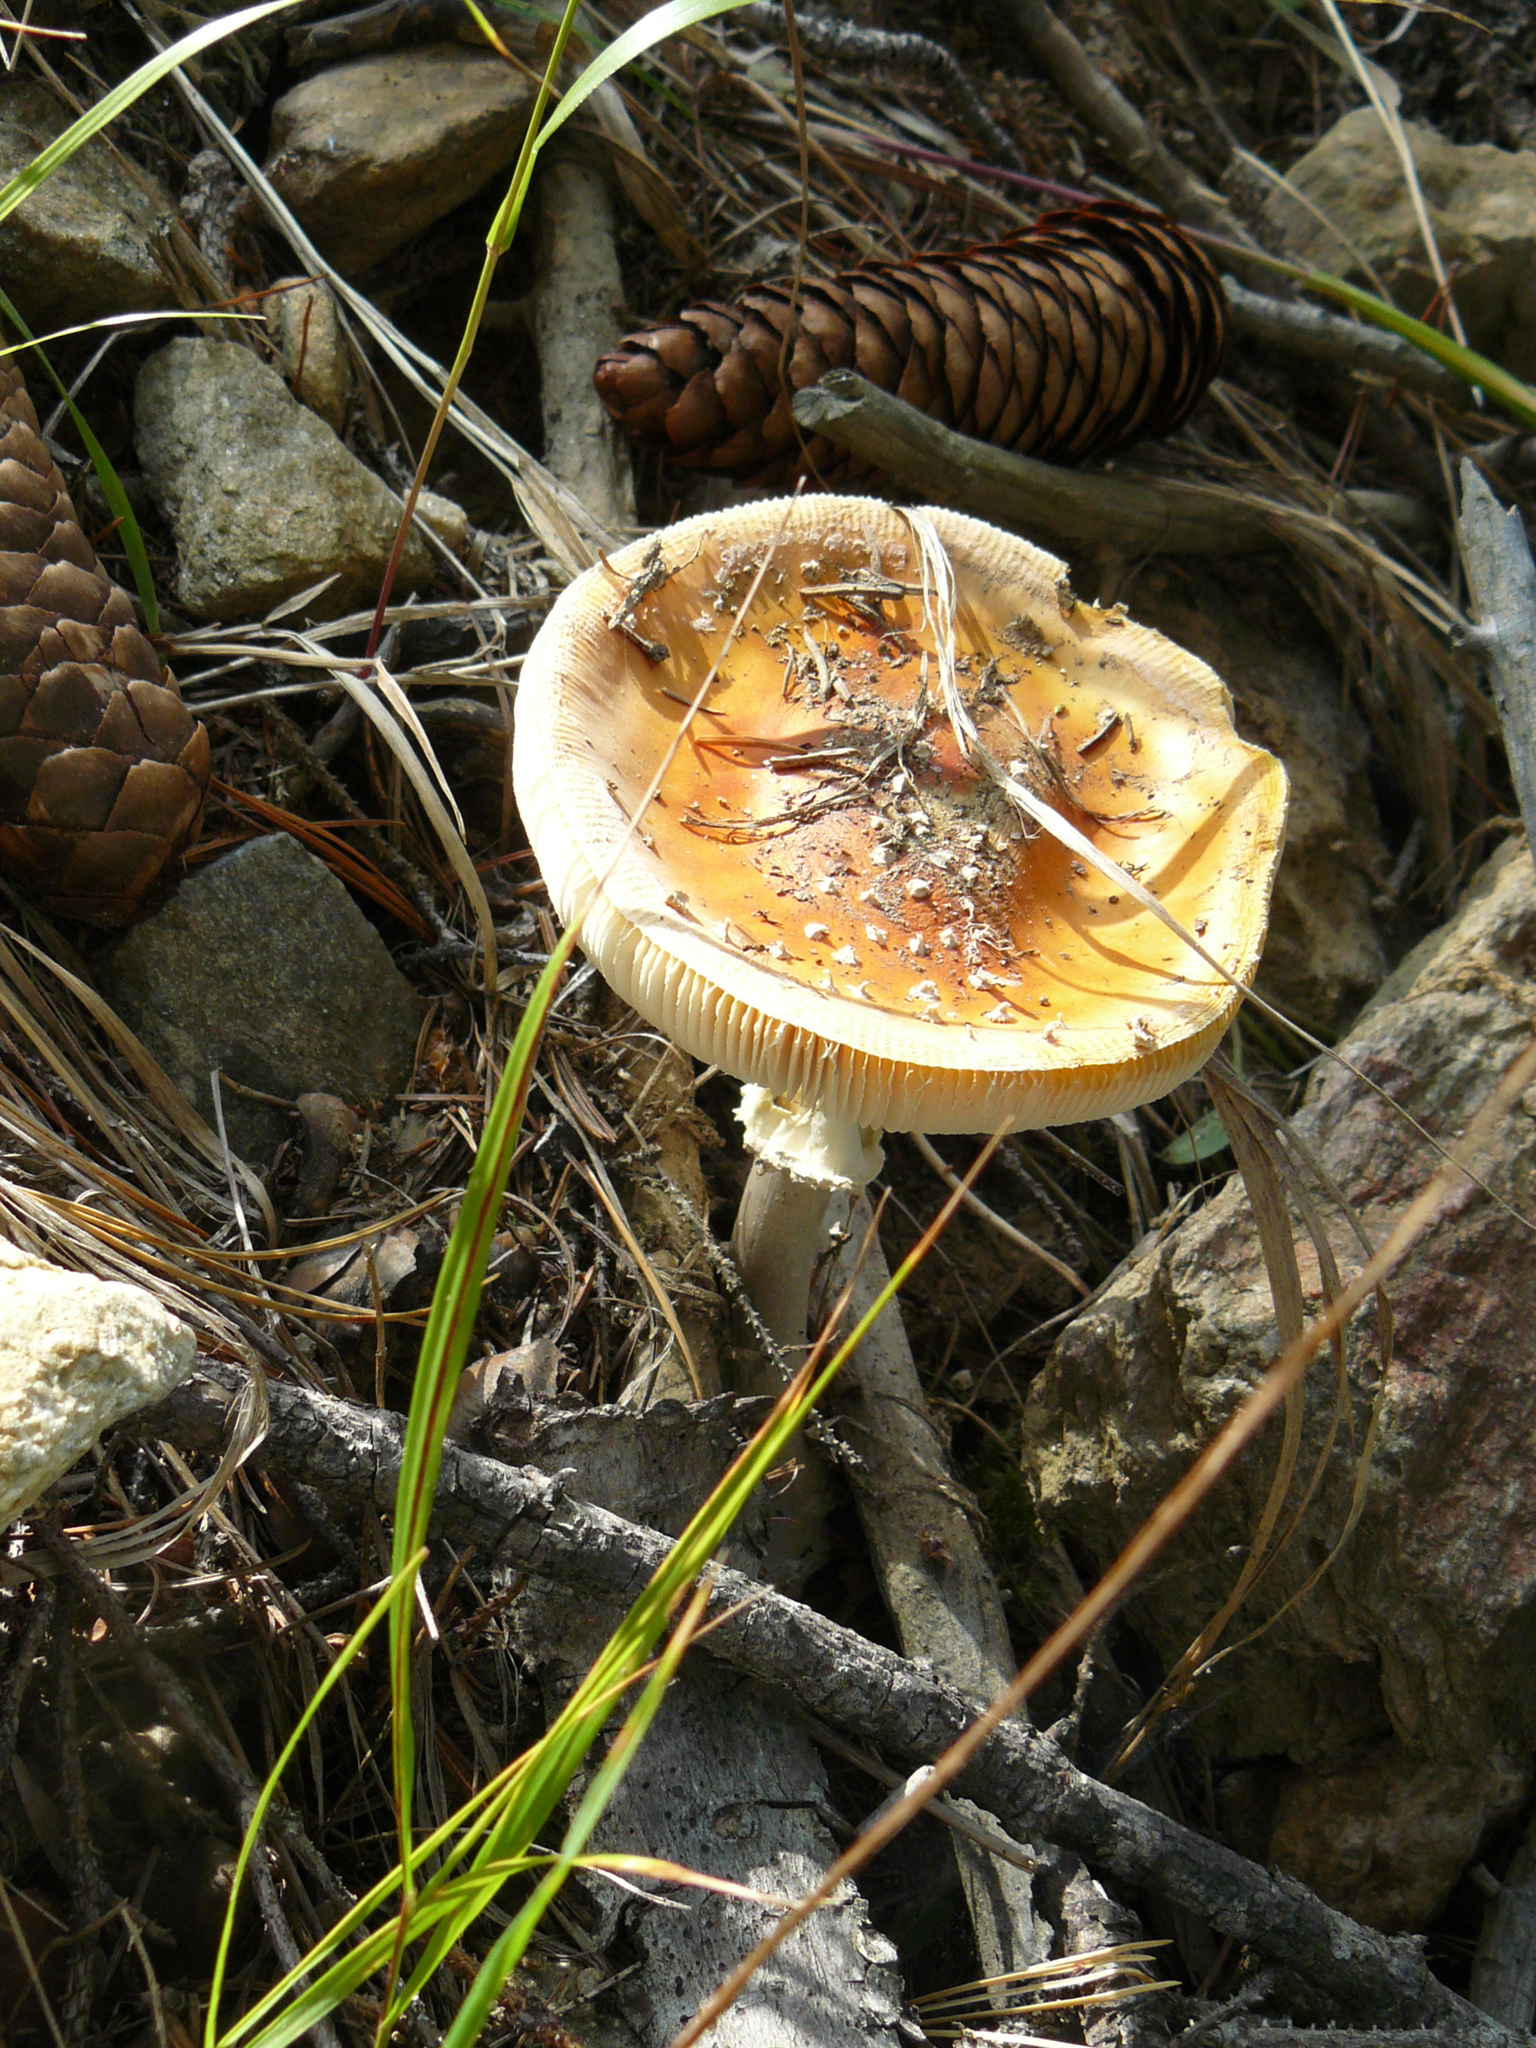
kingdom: Fungi
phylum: Basidiomycota
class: Agaricomycetes
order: Agaricales
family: Amanitaceae
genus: Amanita
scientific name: Amanita muscaria
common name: Fly agaric
